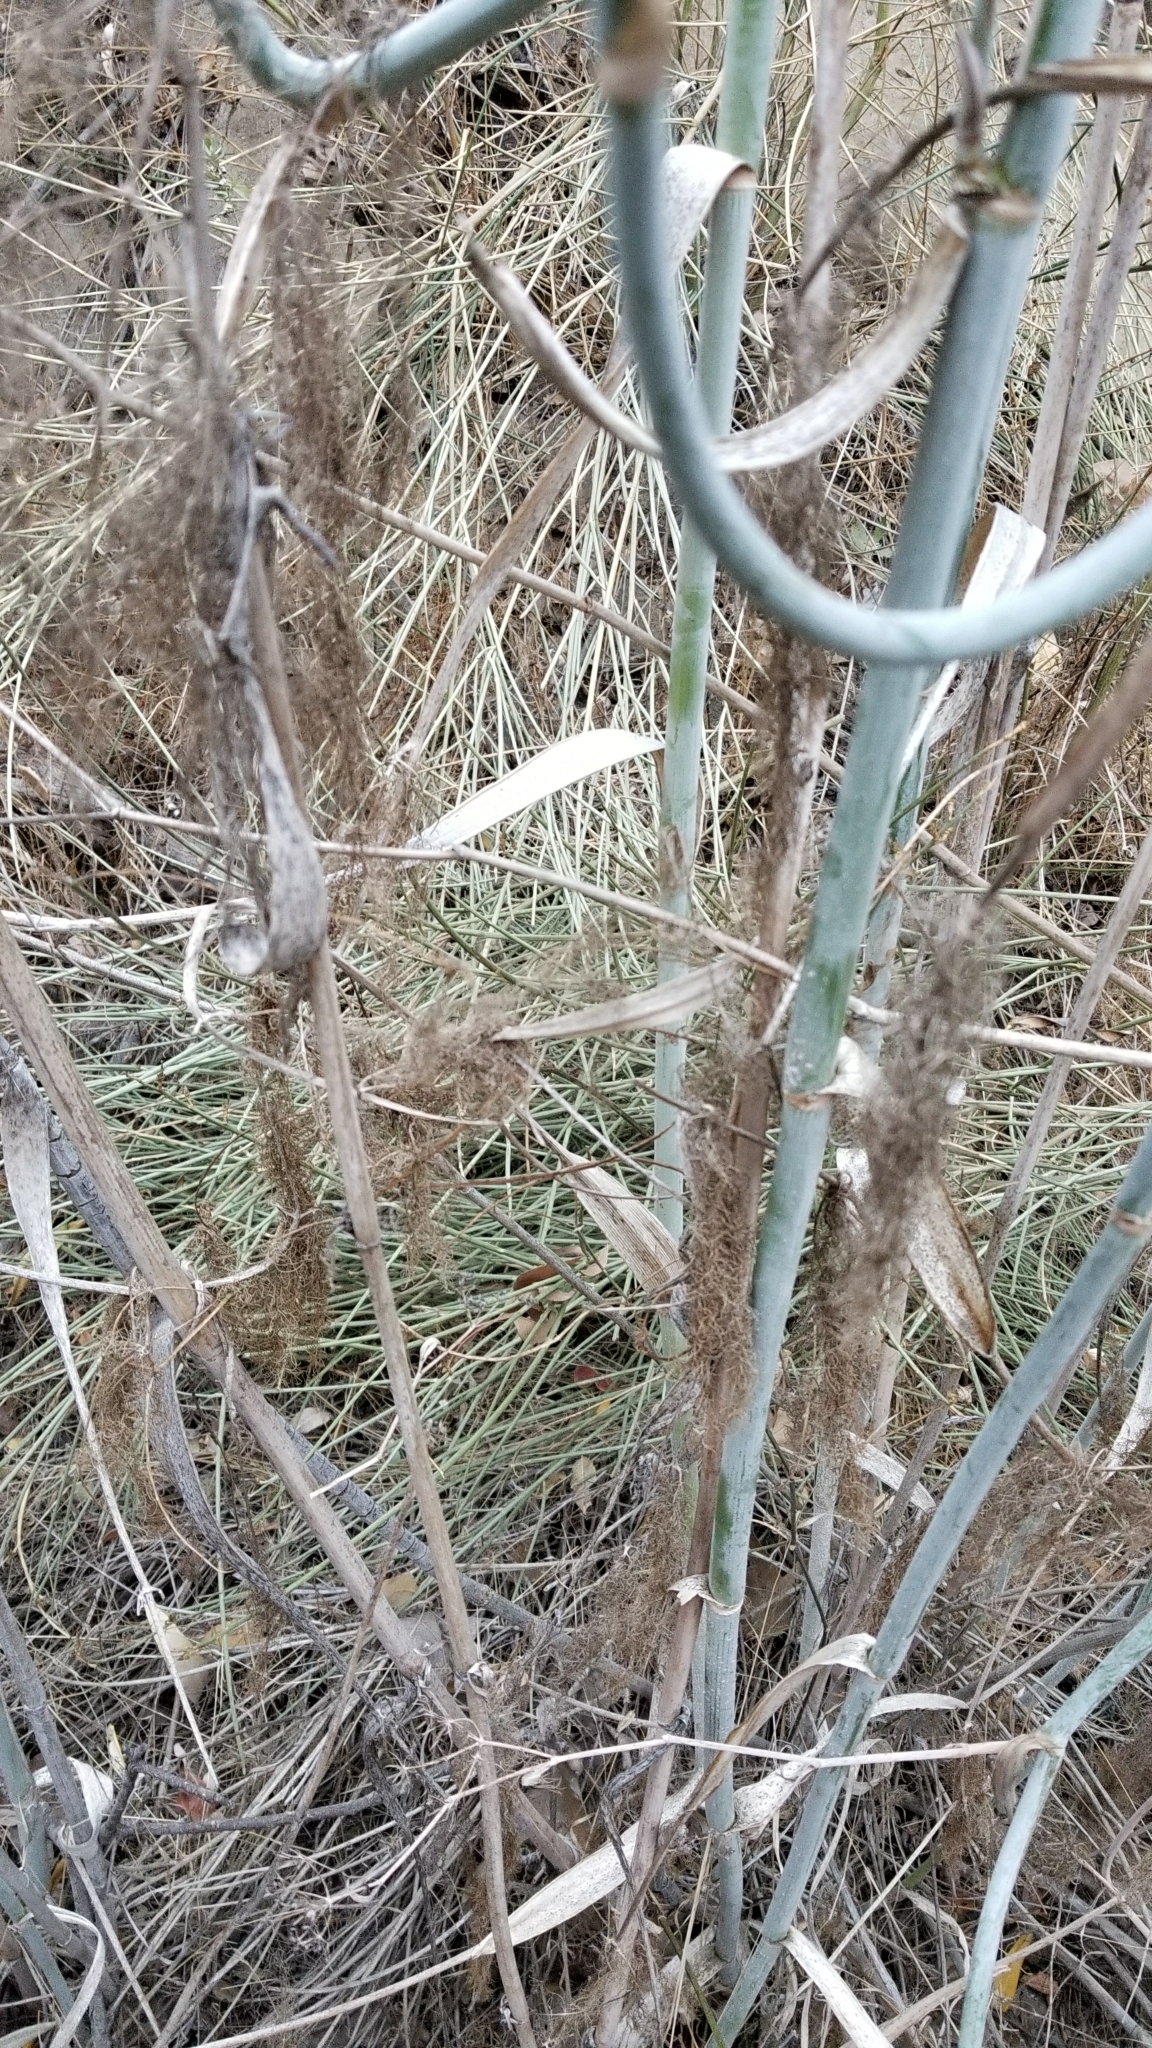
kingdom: Plantae
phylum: Tracheophyta
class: Magnoliopsida
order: Apiales
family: Apiaceae
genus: Foeniculum
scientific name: Foeniculum vulgare
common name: Fennel
